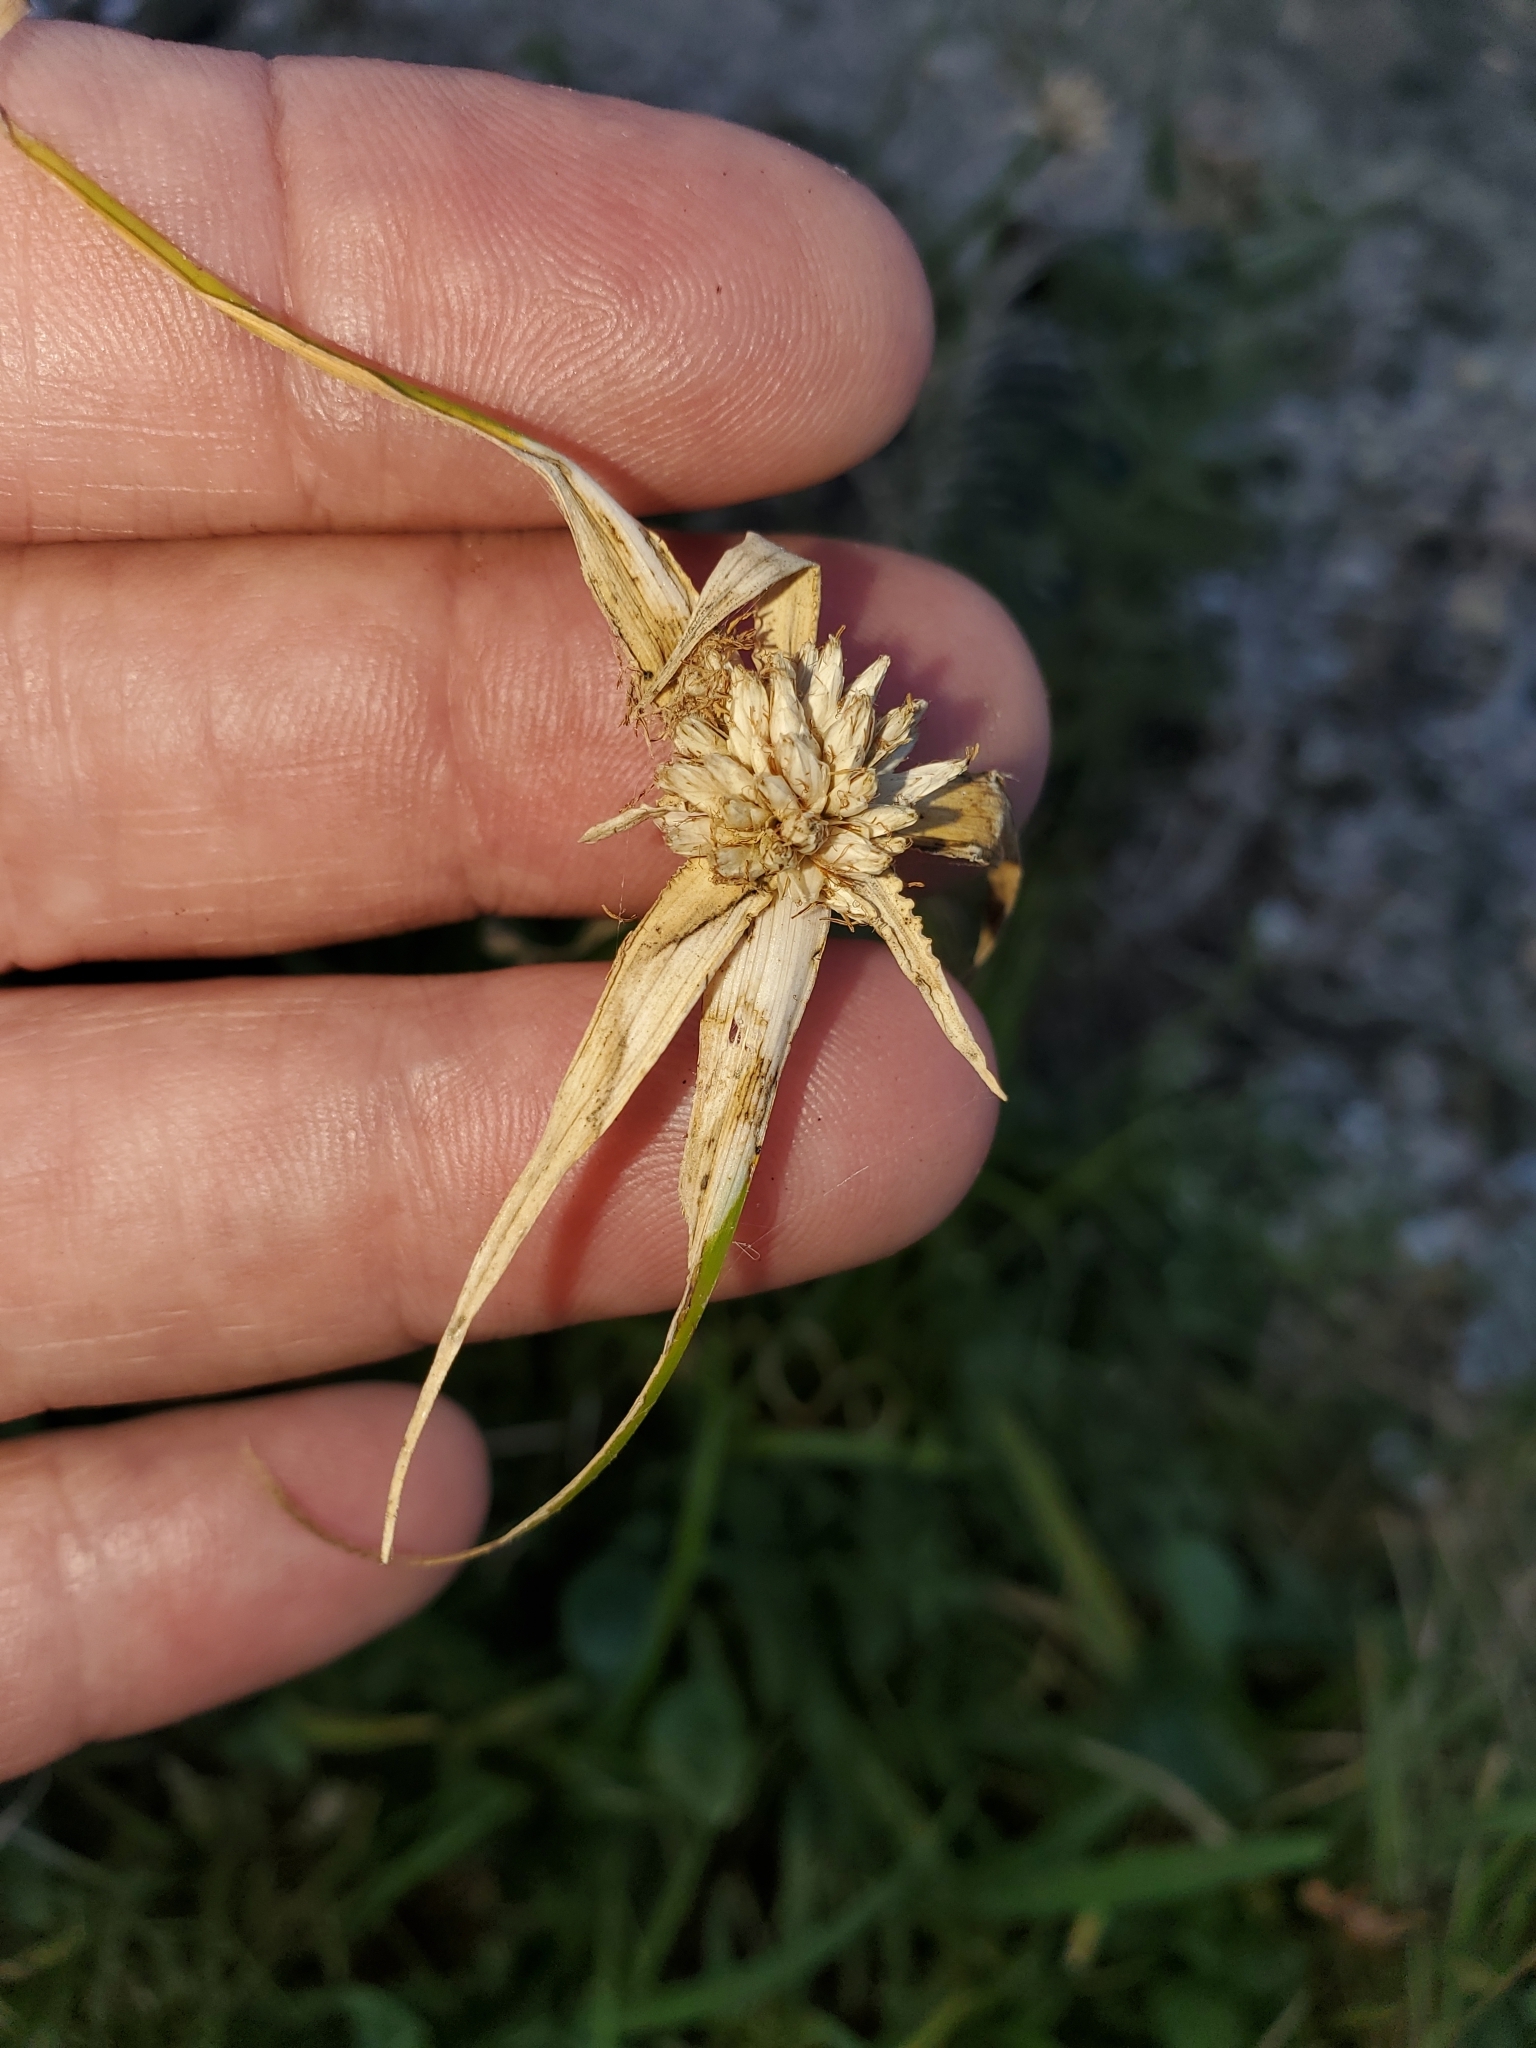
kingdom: Plantae
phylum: Tracheophyta
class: Liliopsida
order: Poales
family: Cyperaceae
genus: Rhynchospora
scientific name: Rhynchospora colorata
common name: Star sedge
